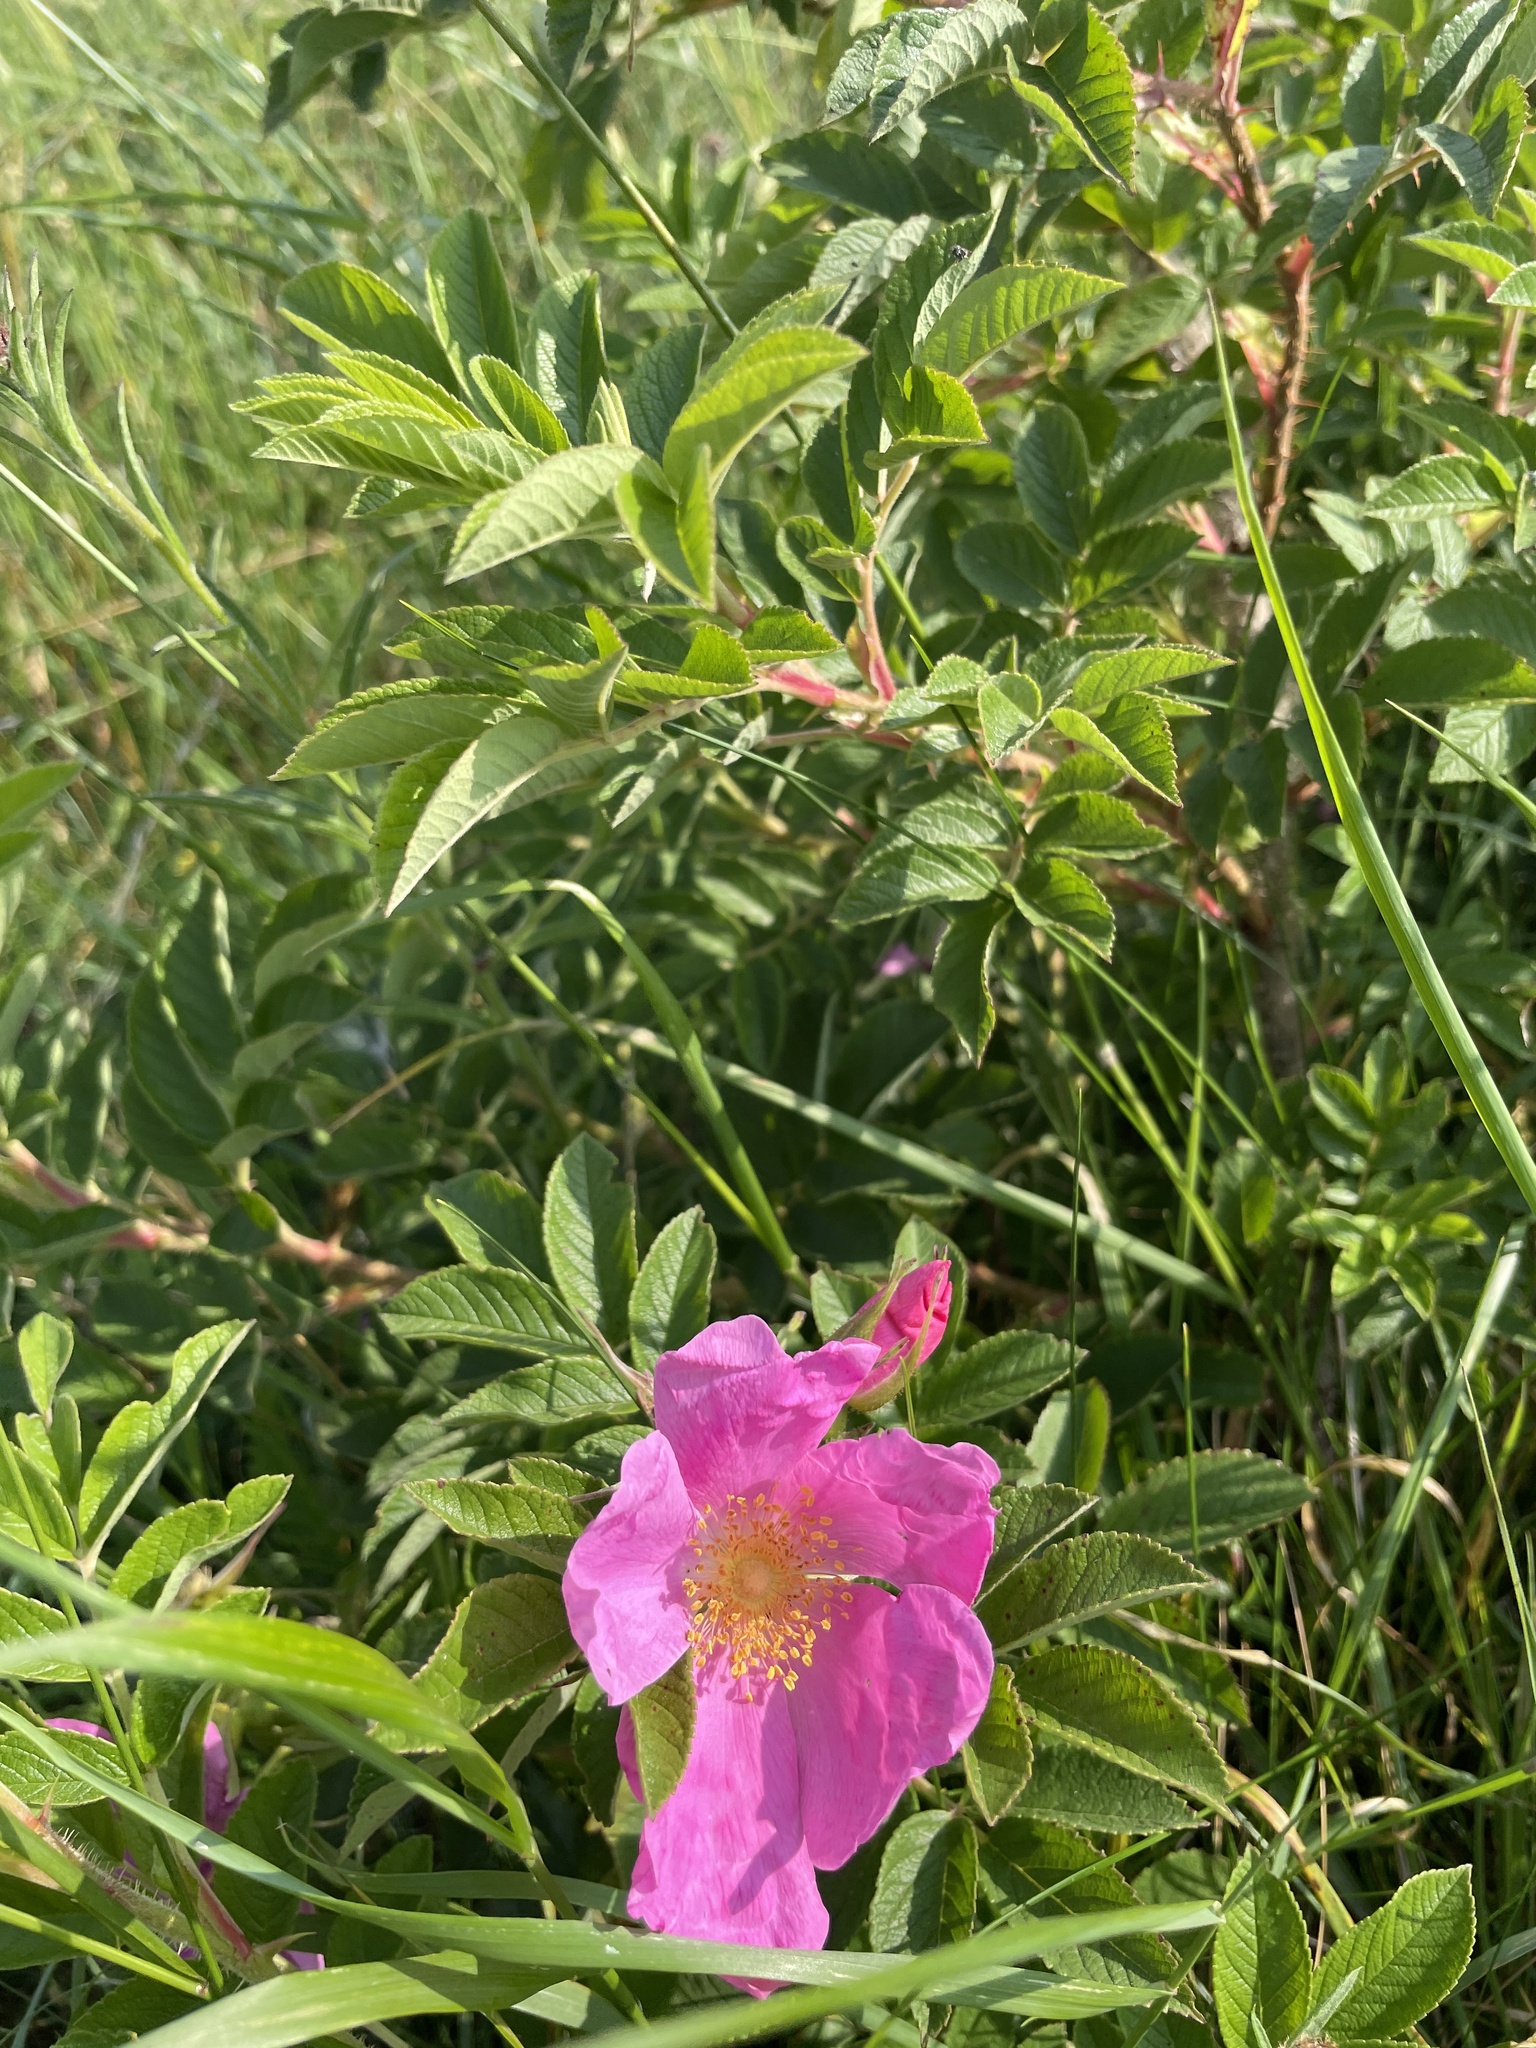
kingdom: Plantae
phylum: Tracheophyta
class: Magnoliopsida
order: Rosales
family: Rosaceae
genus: Rosa
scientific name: Rosa rugosa
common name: Japanese rose
